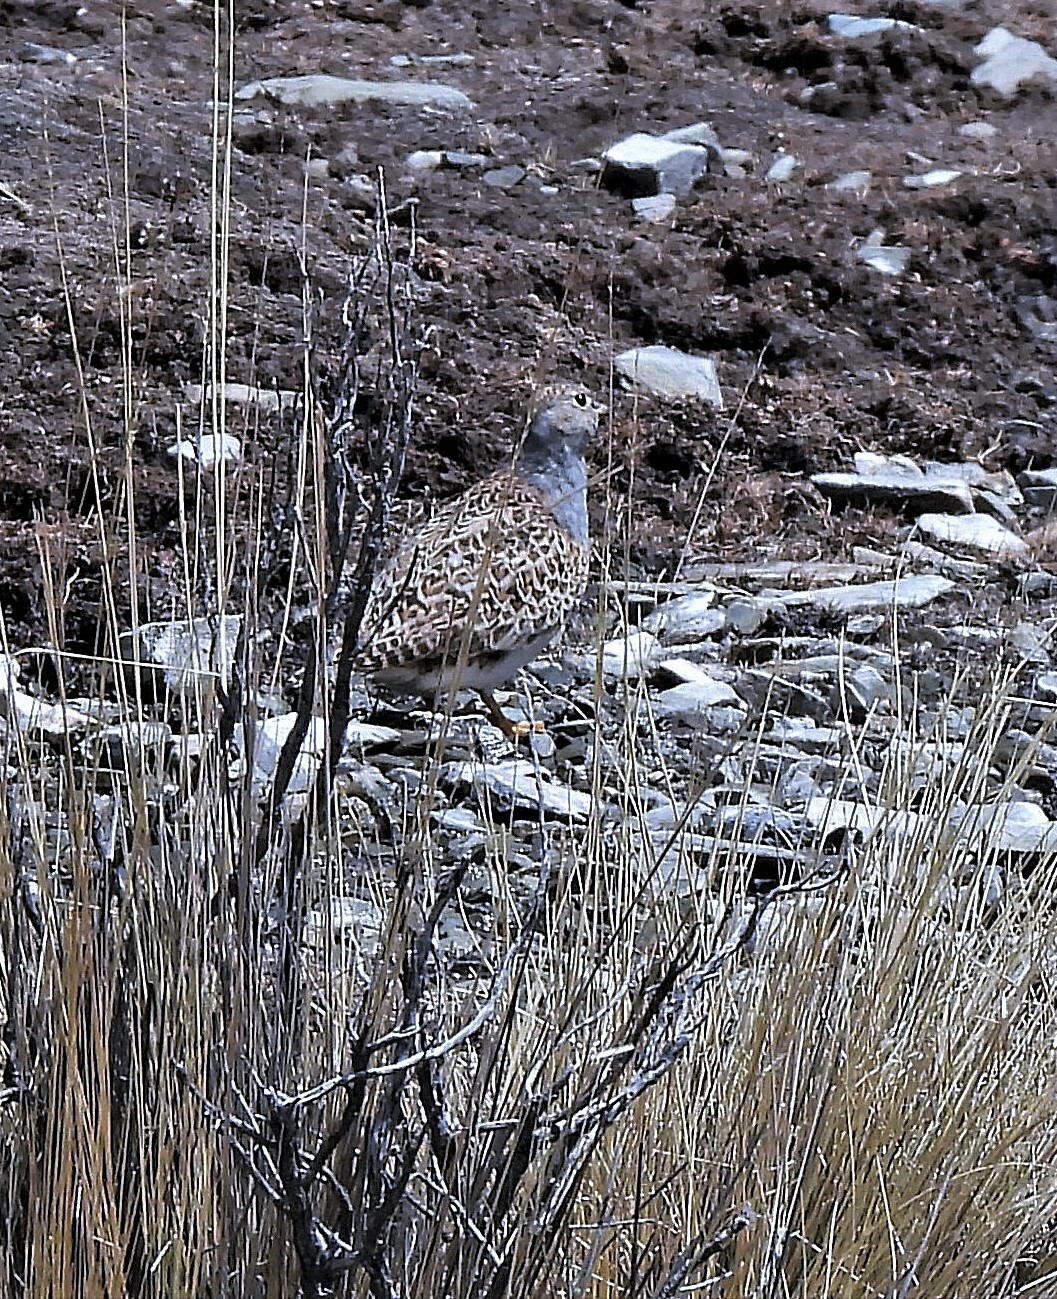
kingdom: Animalia
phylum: Chordata
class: Aves
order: Charadriiformes
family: Thinocoridae
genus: Thinocorus
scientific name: Thinocorus orbignyianus
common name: Grey-breasted seedsnipe
